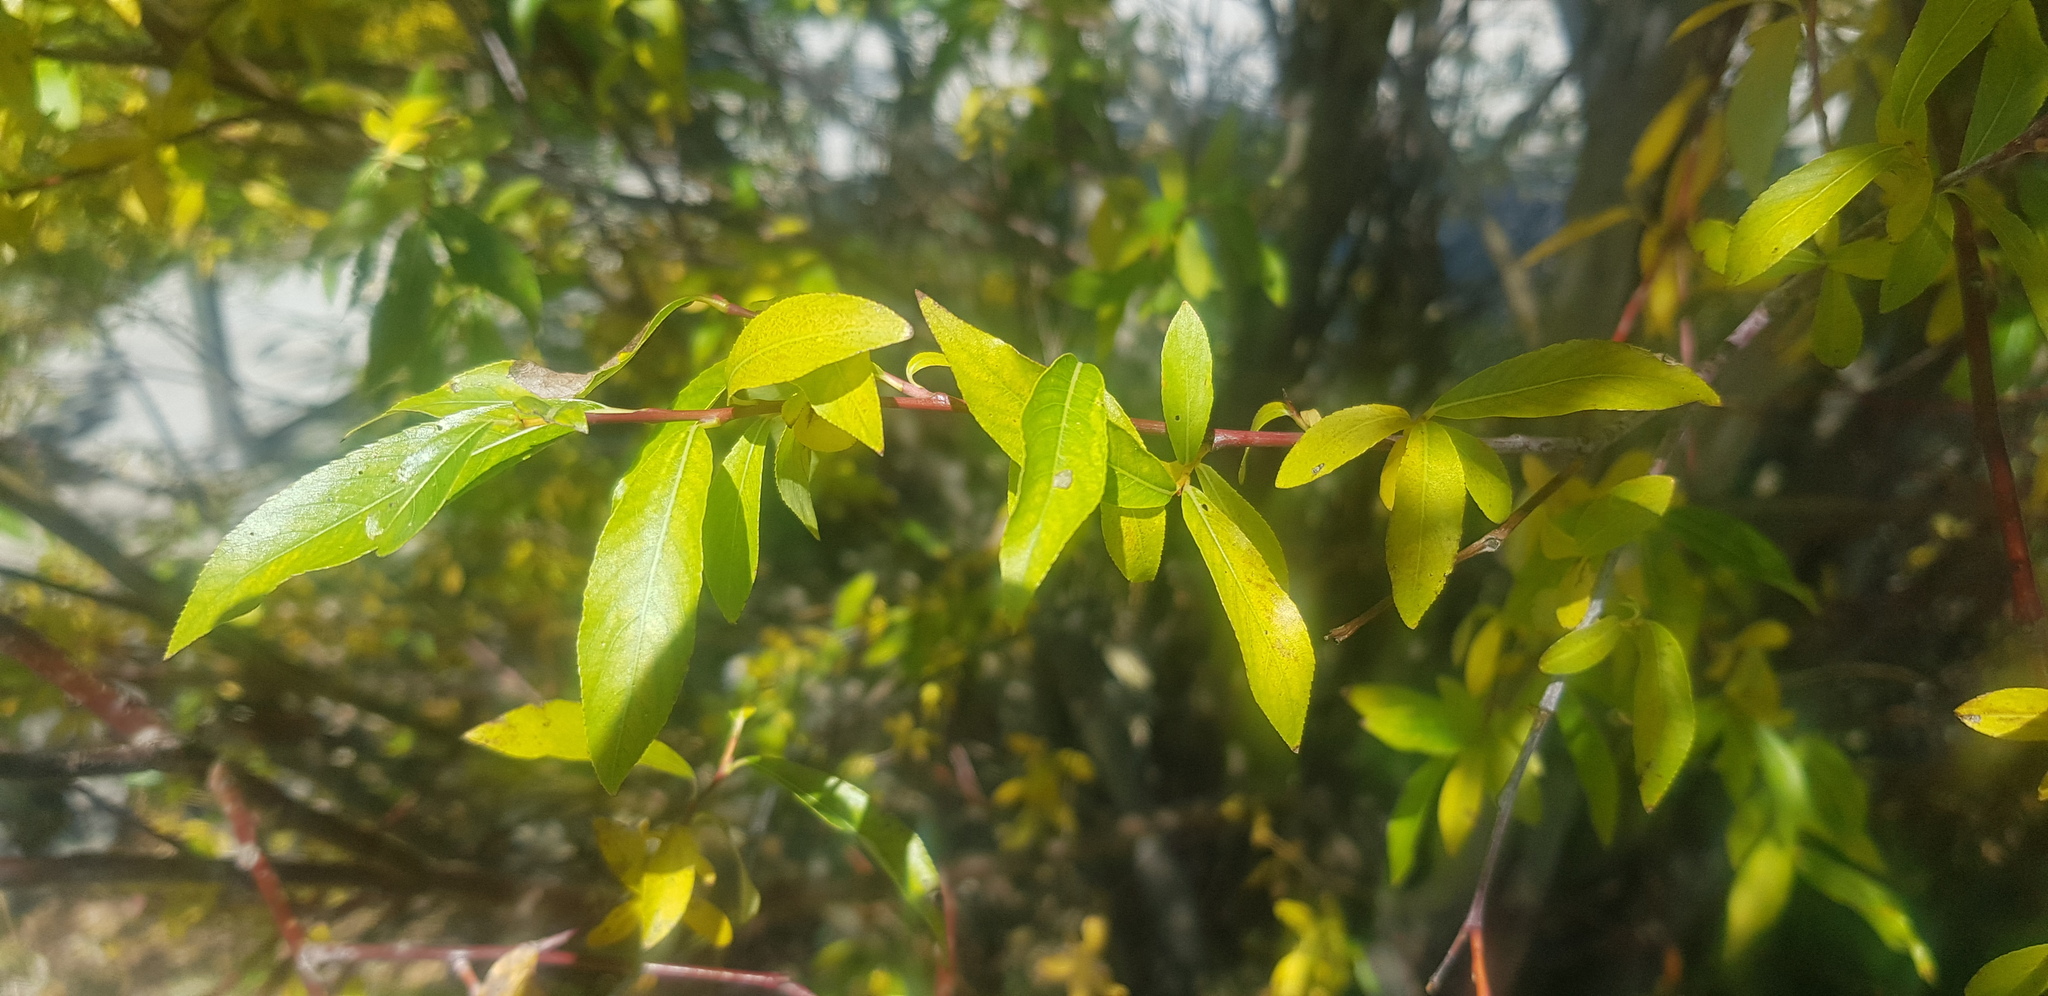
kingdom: Plantae
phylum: Tracheophyta
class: Magnoliopsida
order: Malpighiales
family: Salicaceae
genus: Salix
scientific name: Salix taraikensis
